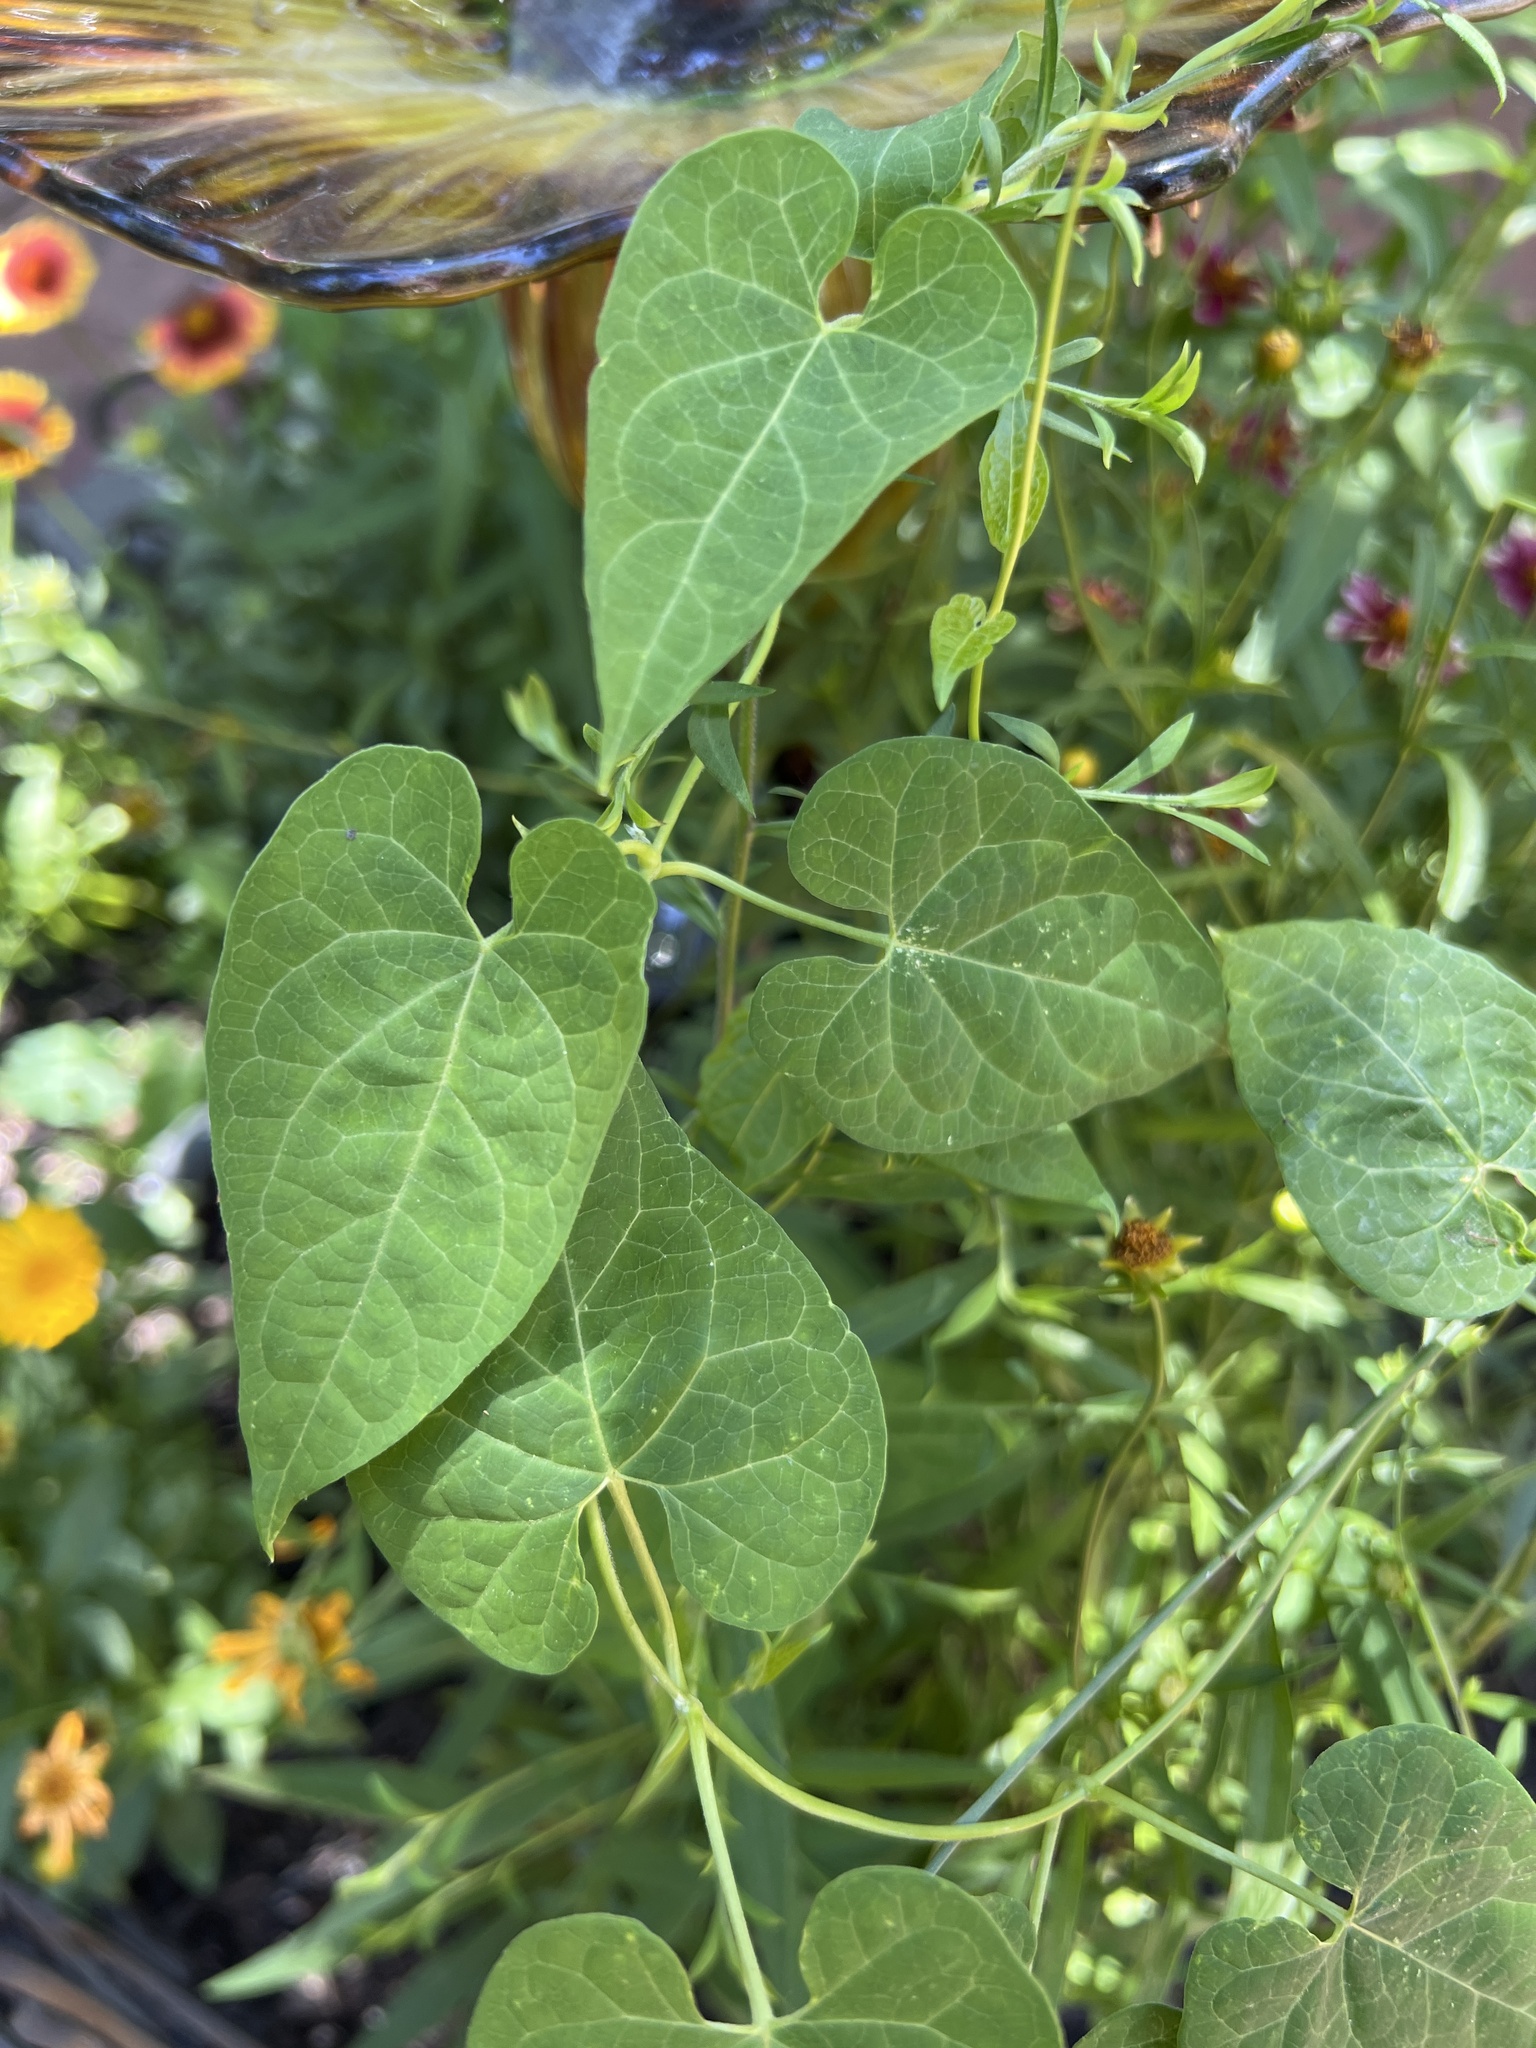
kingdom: Plantae
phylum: Tracheophyta
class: Magnoliopsida
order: Gentianales
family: Apocynaceae
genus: Cynanchum
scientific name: Cynanchum laeve
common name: Sandvine
